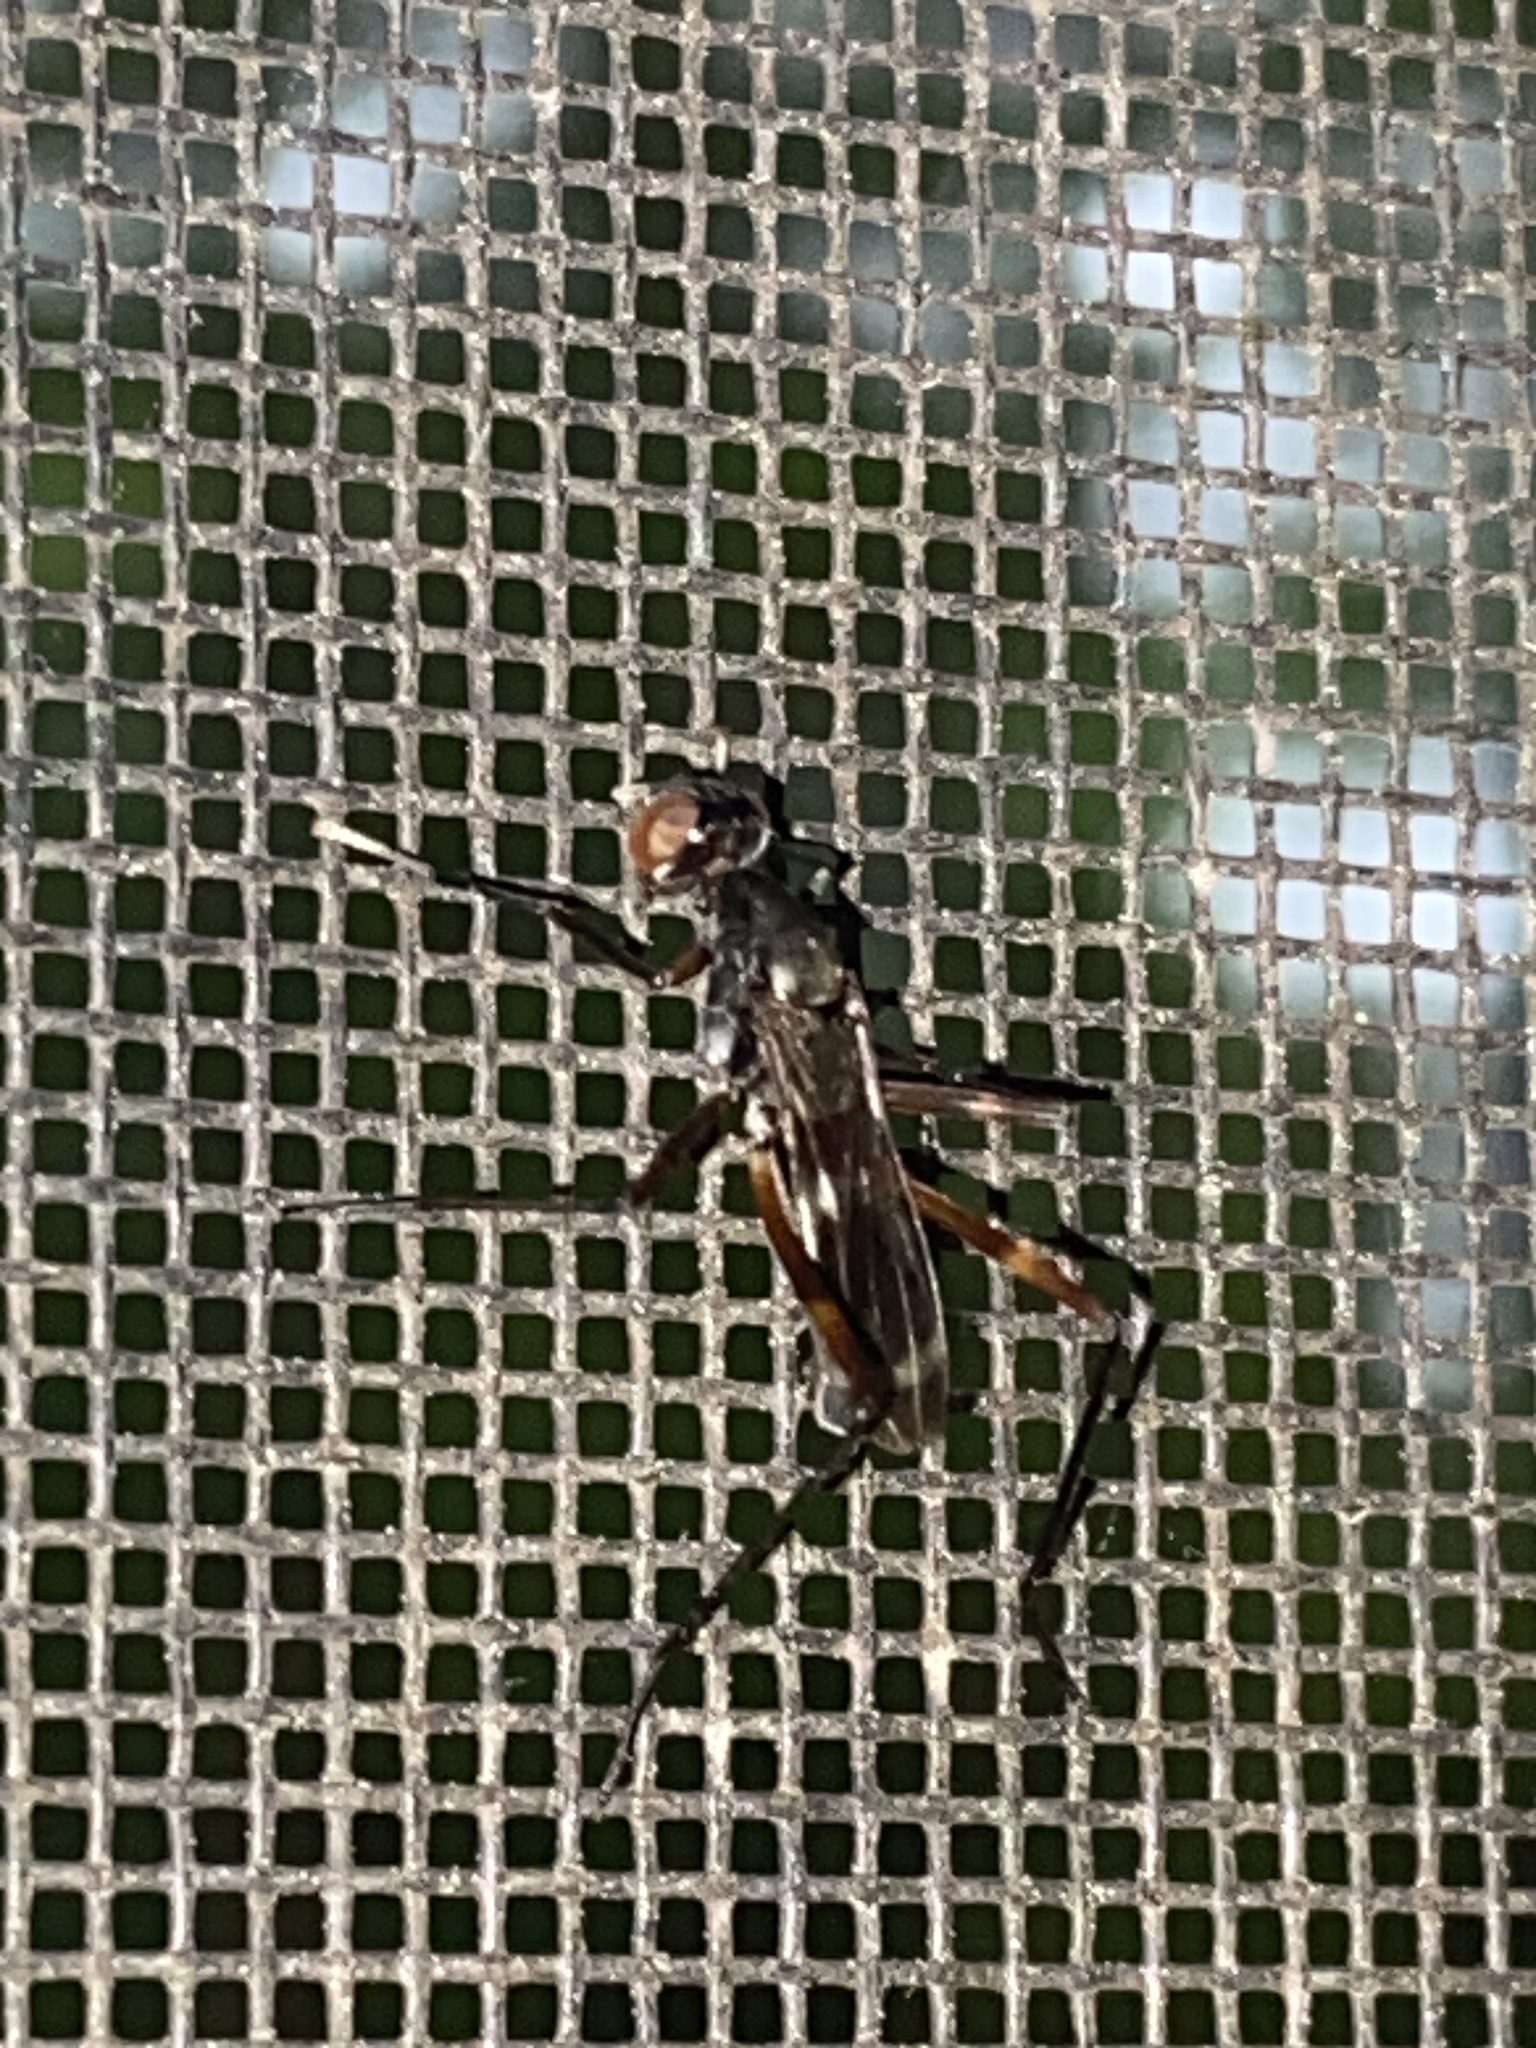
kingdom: Animalia
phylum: Arthropoda
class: Insecta
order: Diptera
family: Micropezidae
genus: Taeniaptera
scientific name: Taeniaptera trivittata
